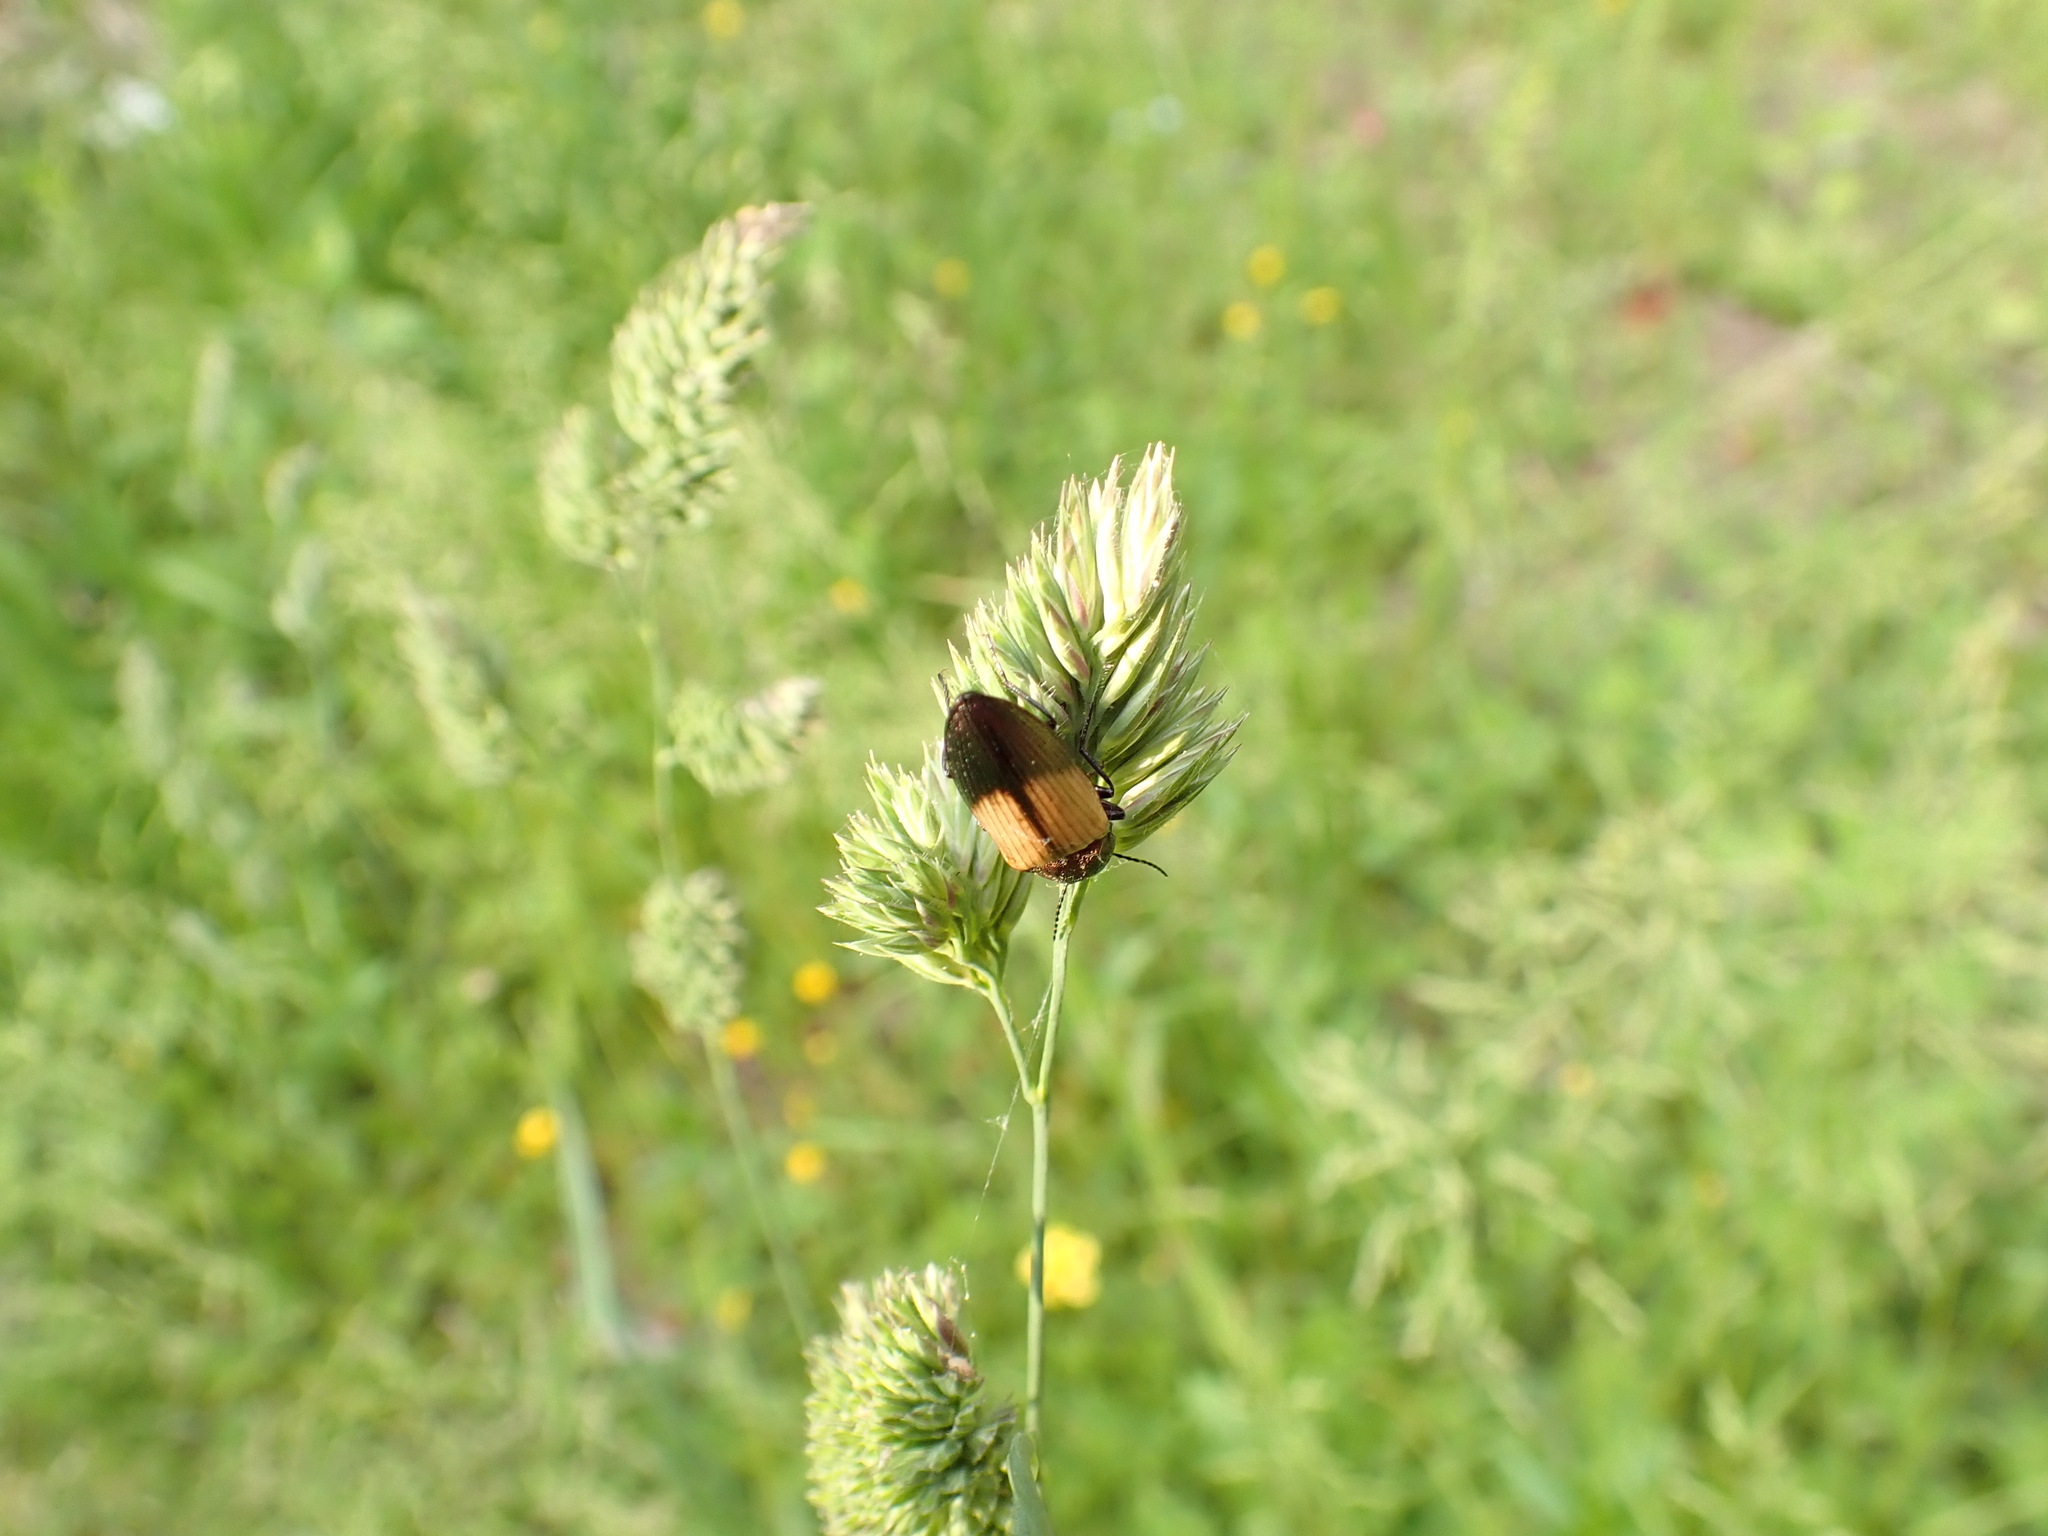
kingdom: Animalia
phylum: Arthropoda
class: Insecta
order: Coleoptera
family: Elateridae
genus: Ctenicera
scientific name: Ctenicera cuprea
